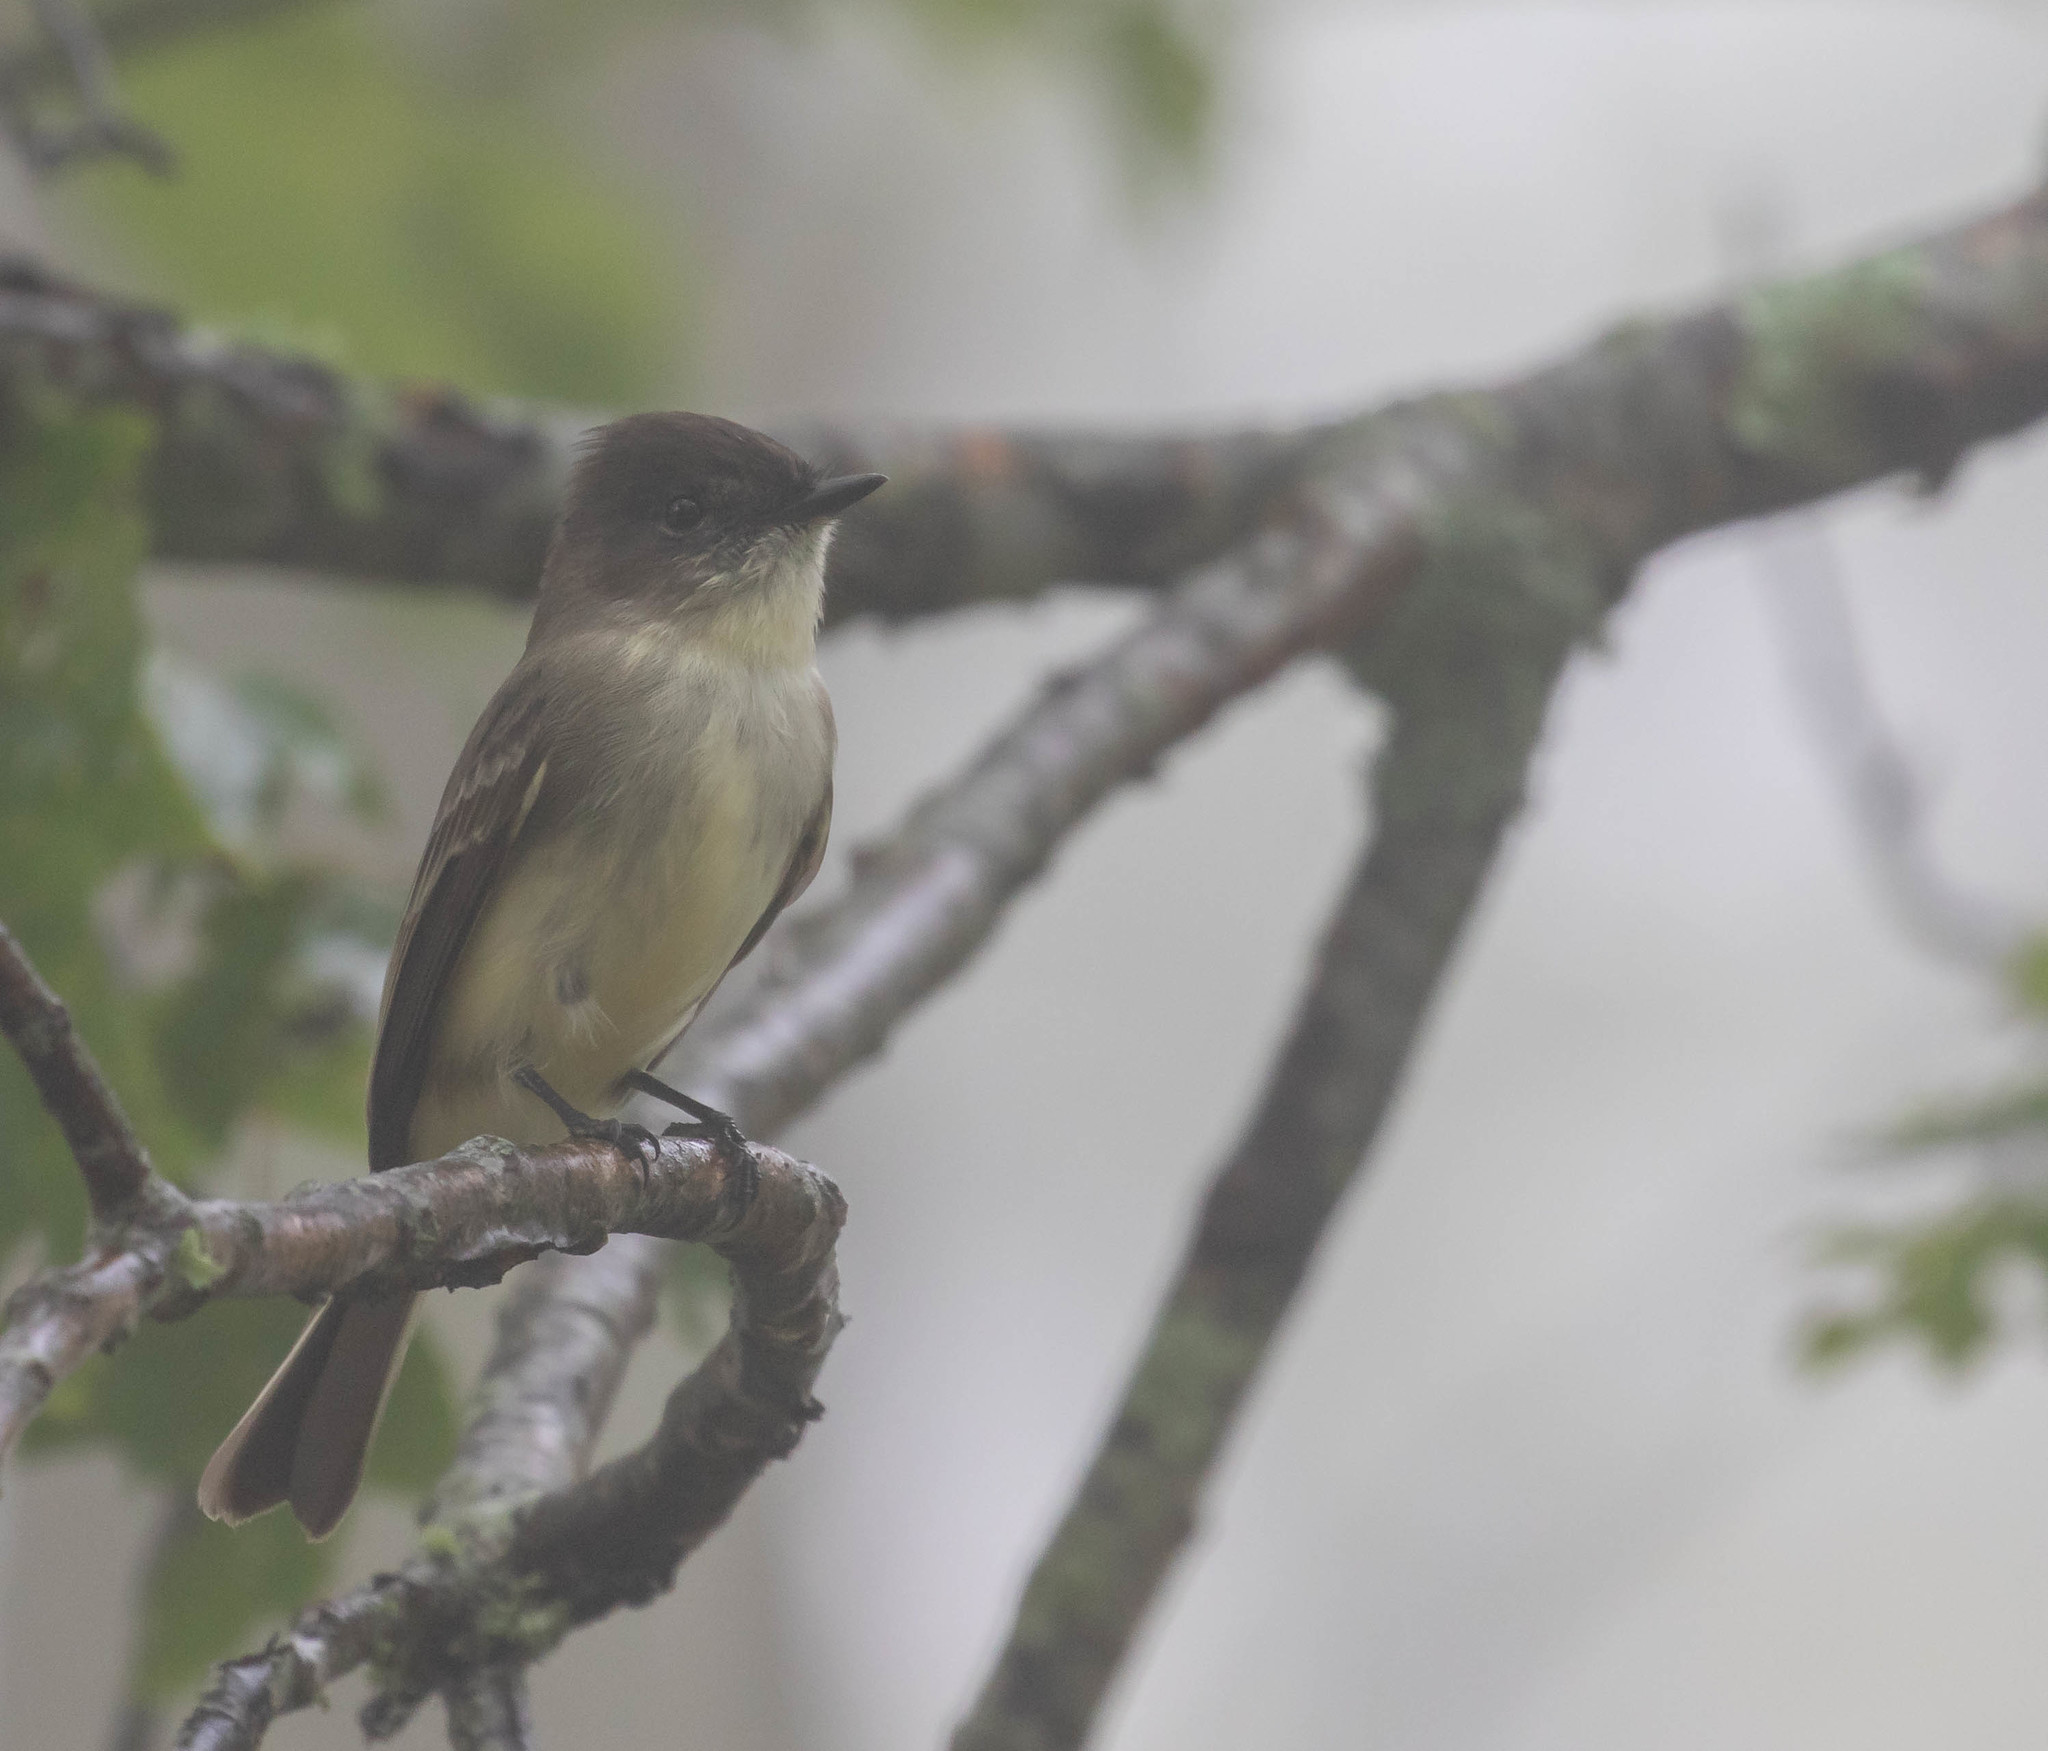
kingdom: Animalia
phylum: Chordata
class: Aves
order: Passeriformes
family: Tyrannidae
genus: Sayornis
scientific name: Sayornis phoebe
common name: Eastern phoebe
